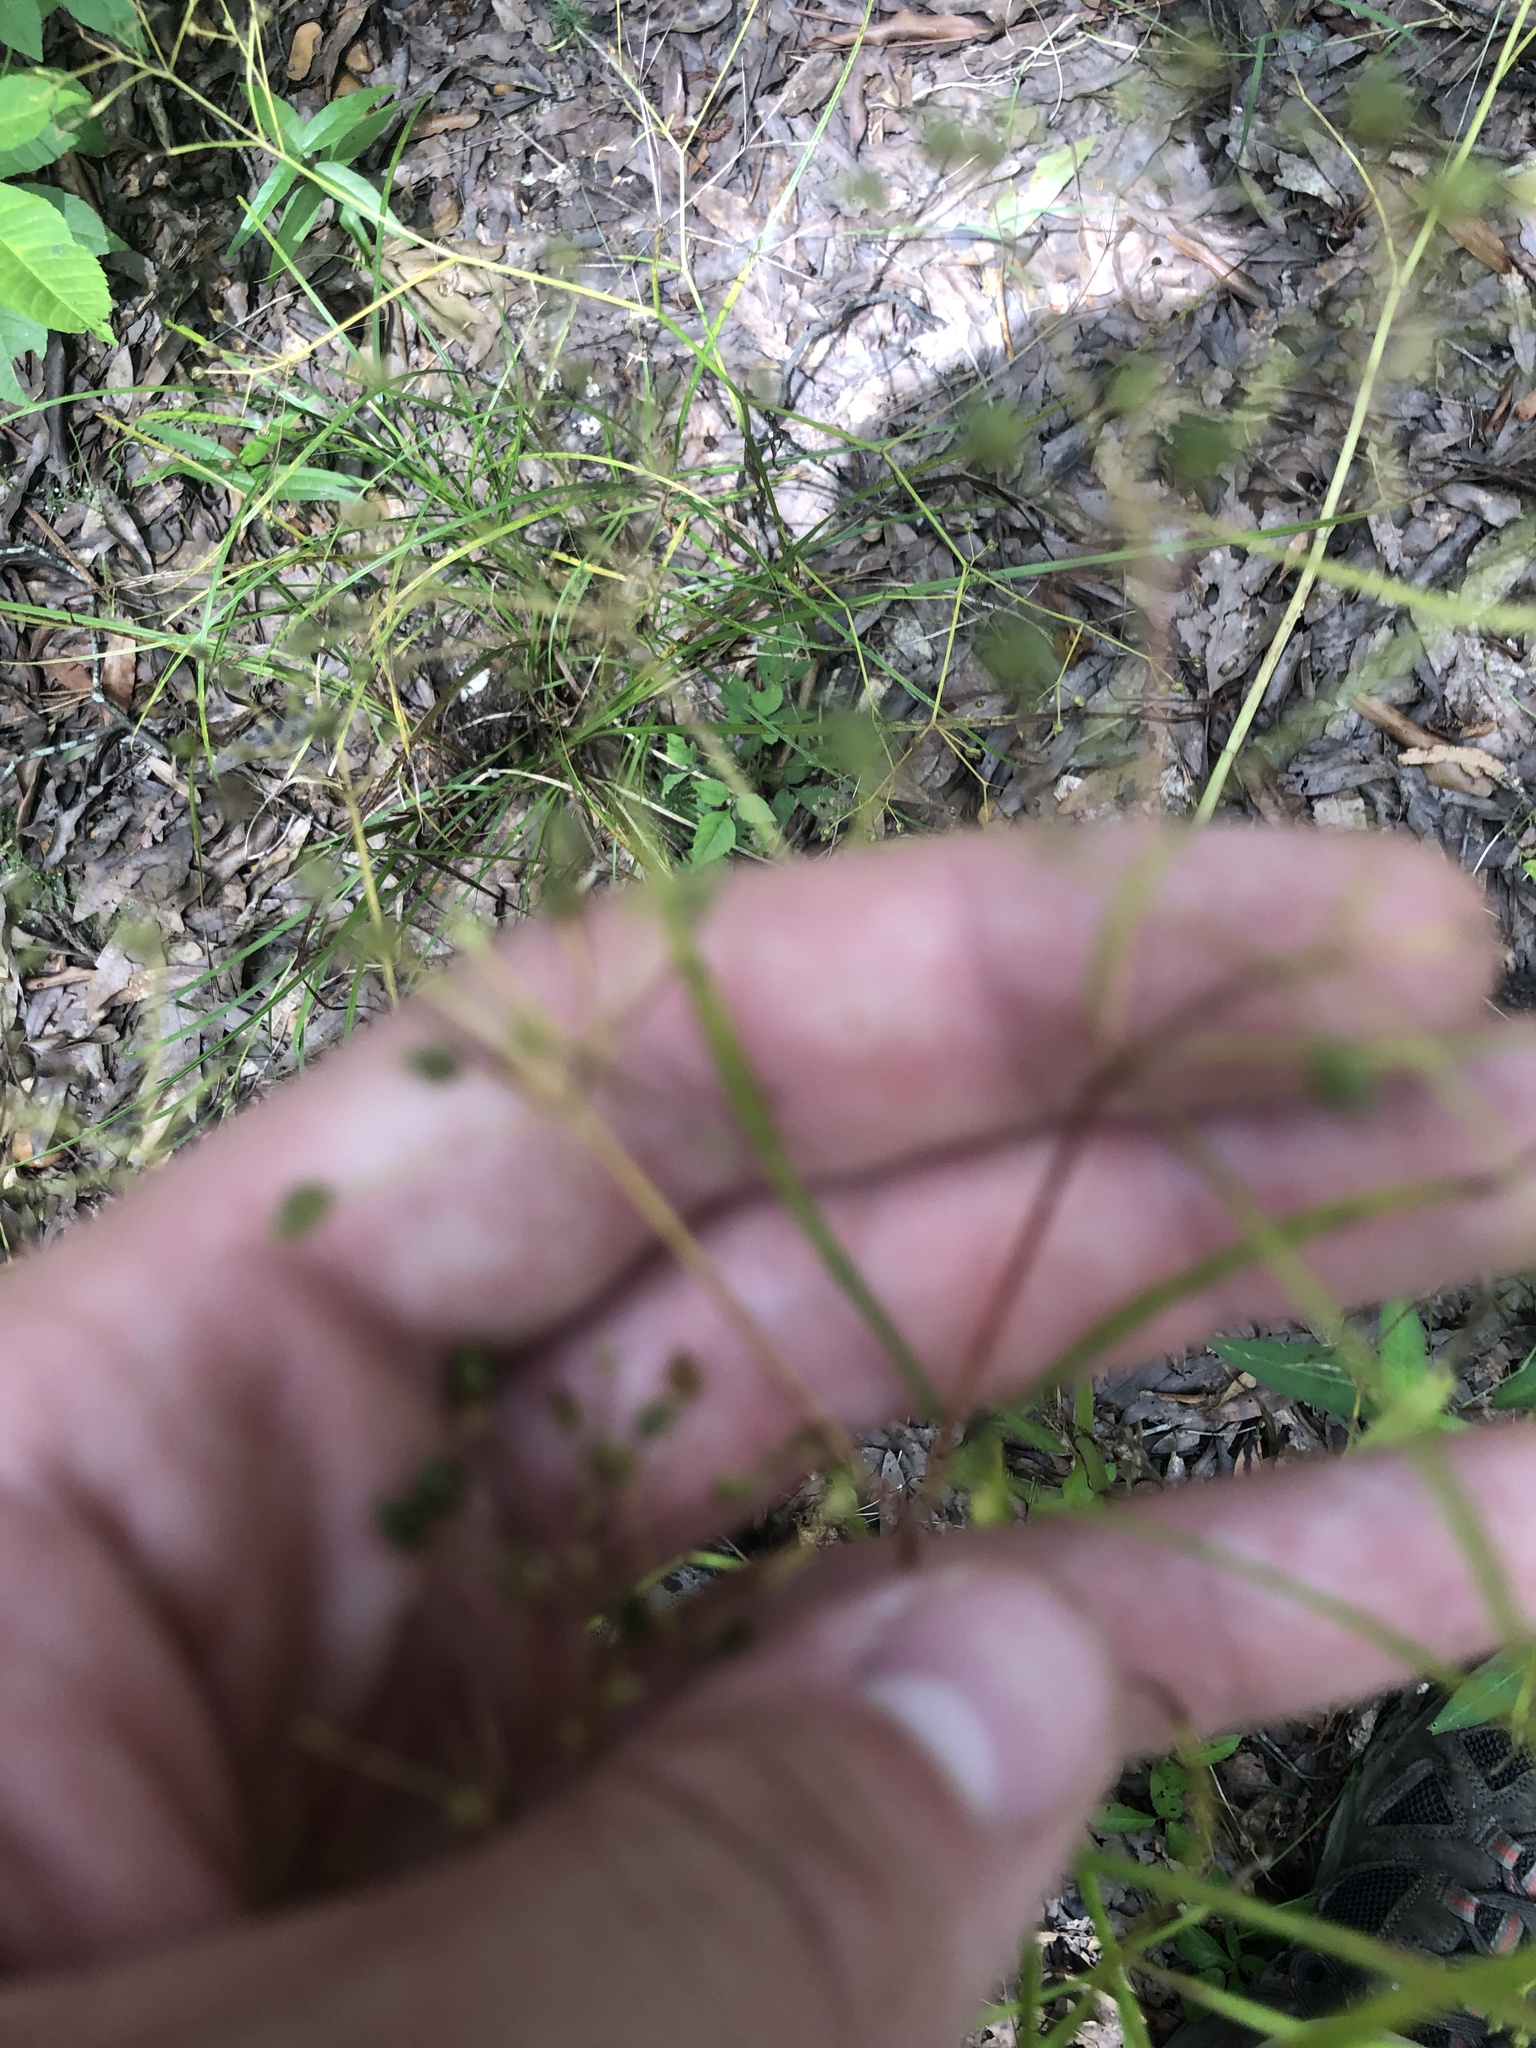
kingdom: Plantae
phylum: Tracheophyta
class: Magnoliopsida
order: Apiales
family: Apiaceae
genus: Cynosciadium
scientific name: Cynosciadium digitatum
